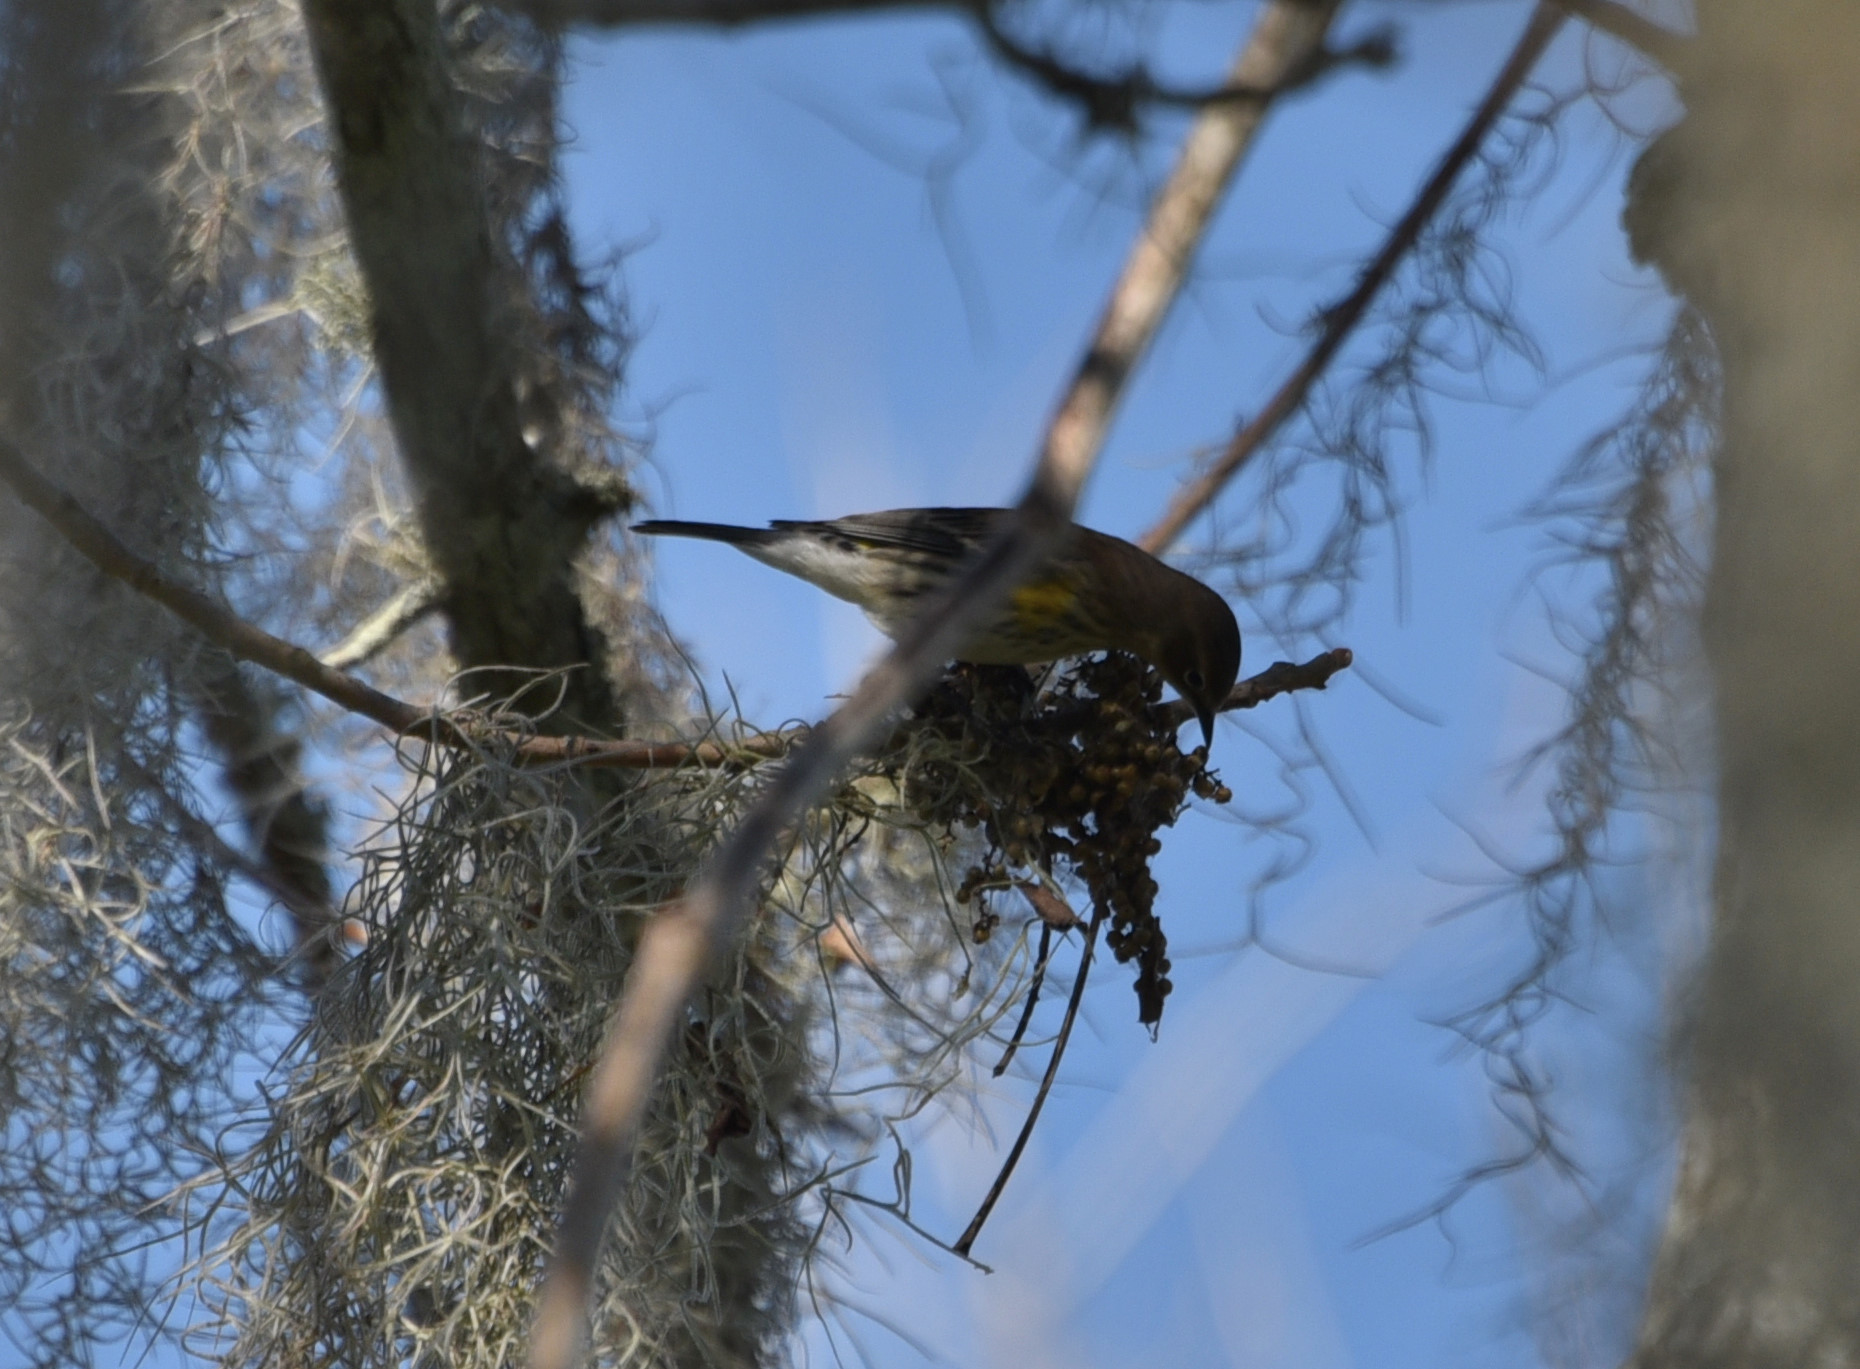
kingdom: Animalia
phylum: Chordata
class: Aves
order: Passeriformes
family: Parulidae
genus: Setophaga
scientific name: Setophaga coronata
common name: Myrtle warbler
